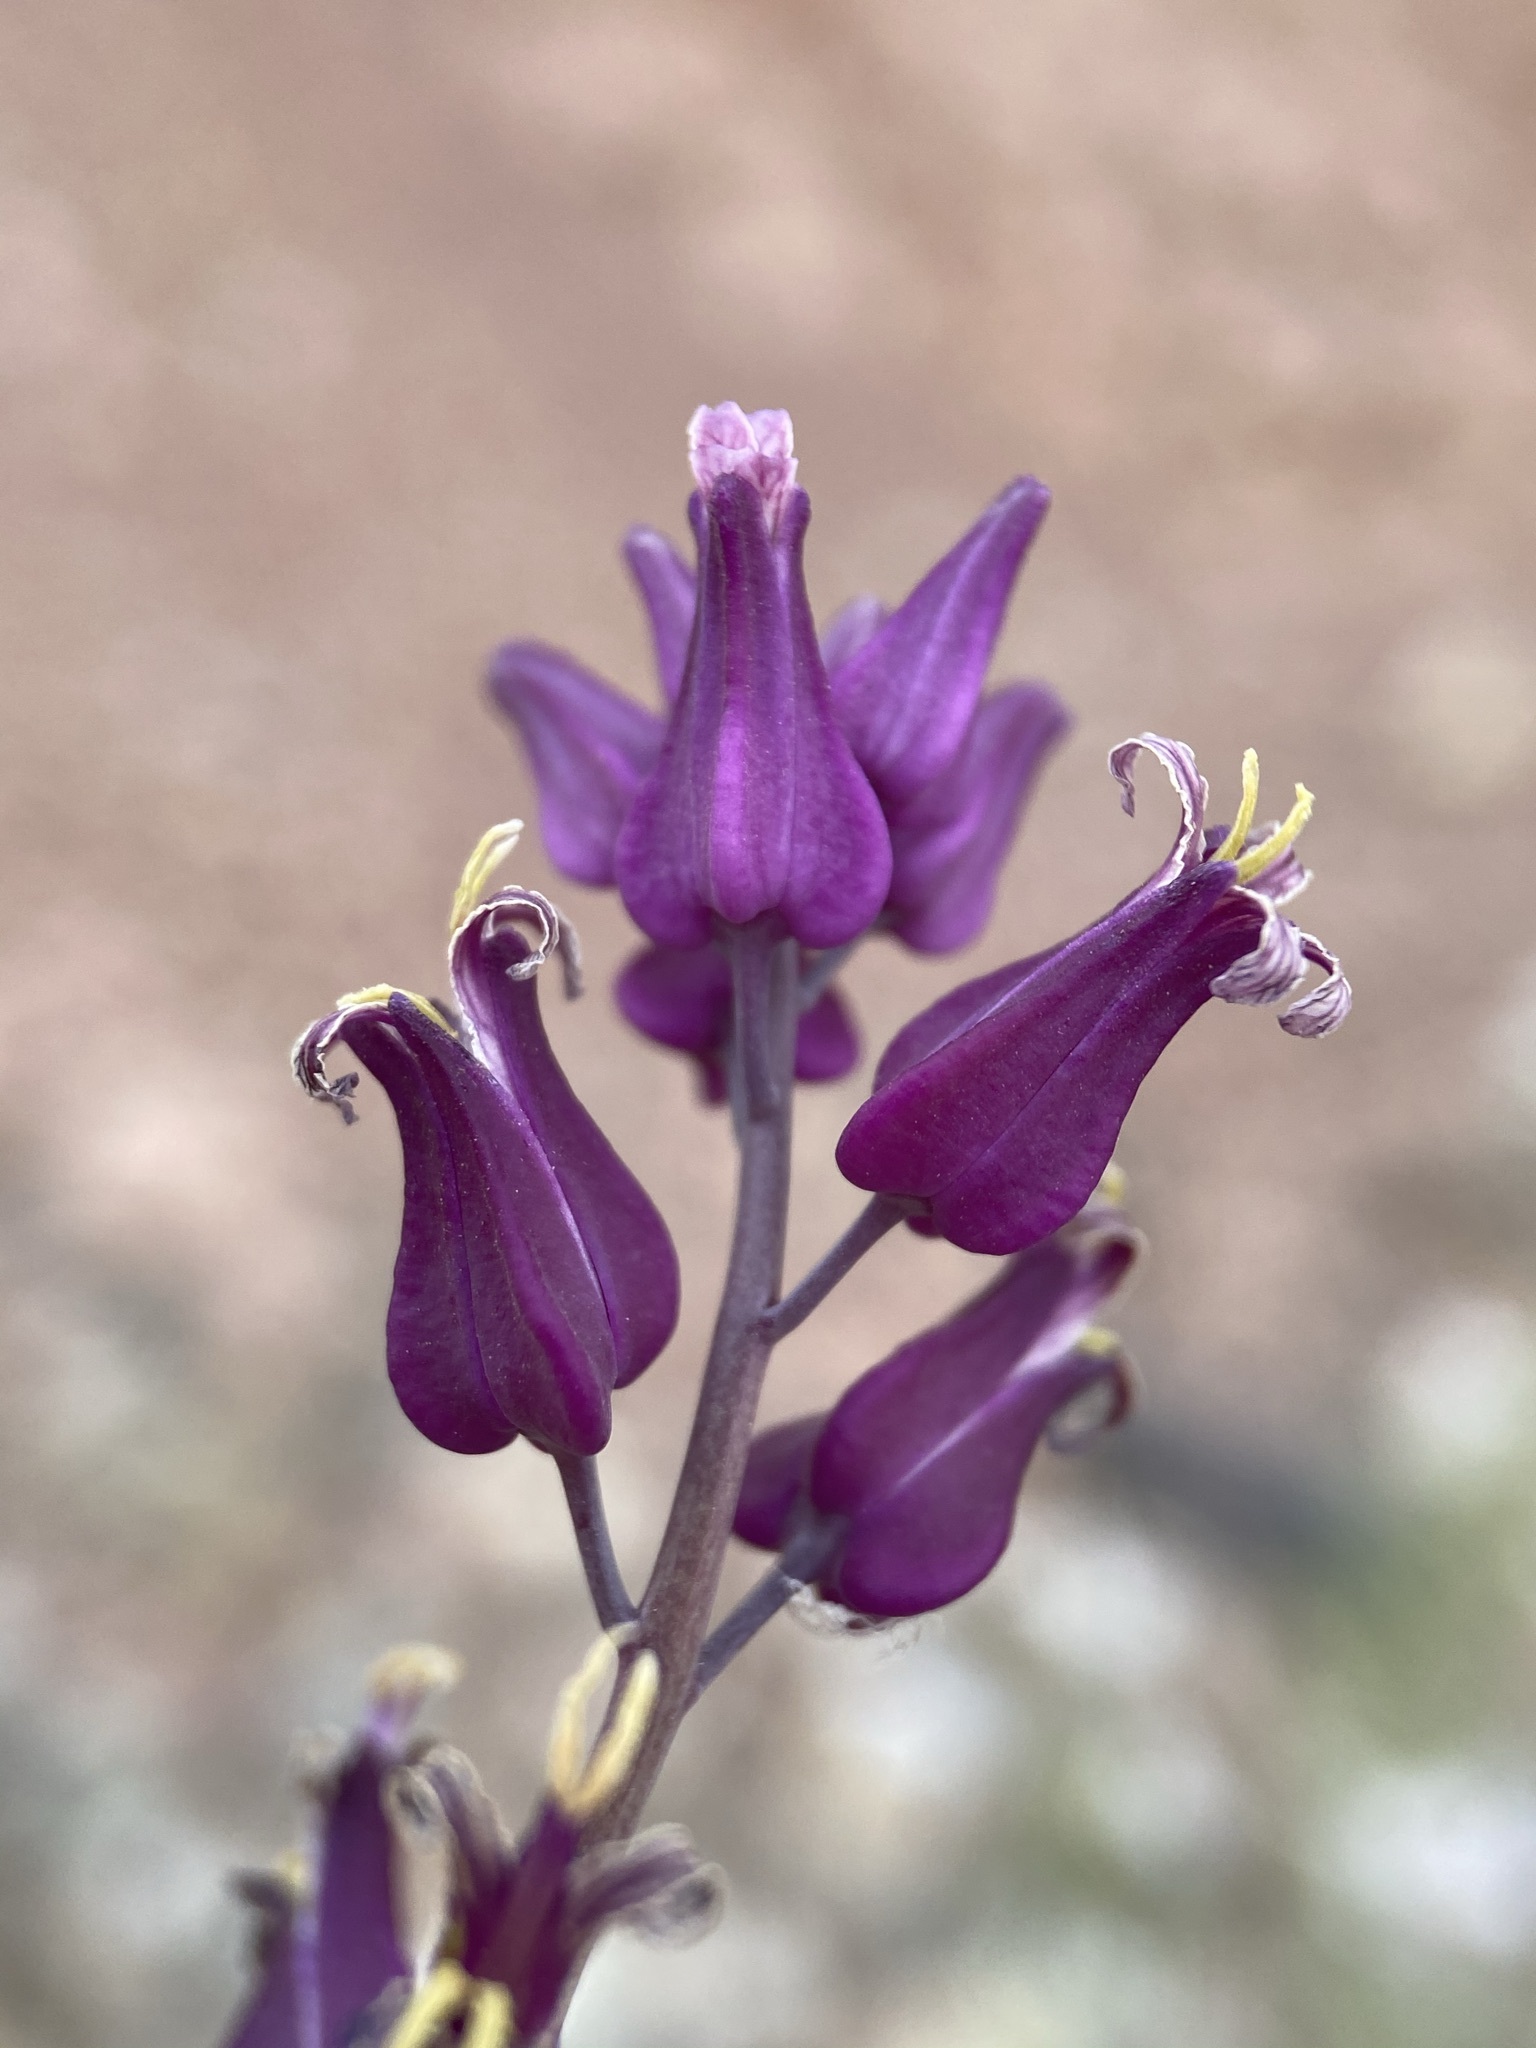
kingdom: Plantae
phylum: Tracheophyta
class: Magnoliopsida
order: Brassicales
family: Brassicaceae
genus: Streptanthus
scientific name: Streptanthus carinatus
